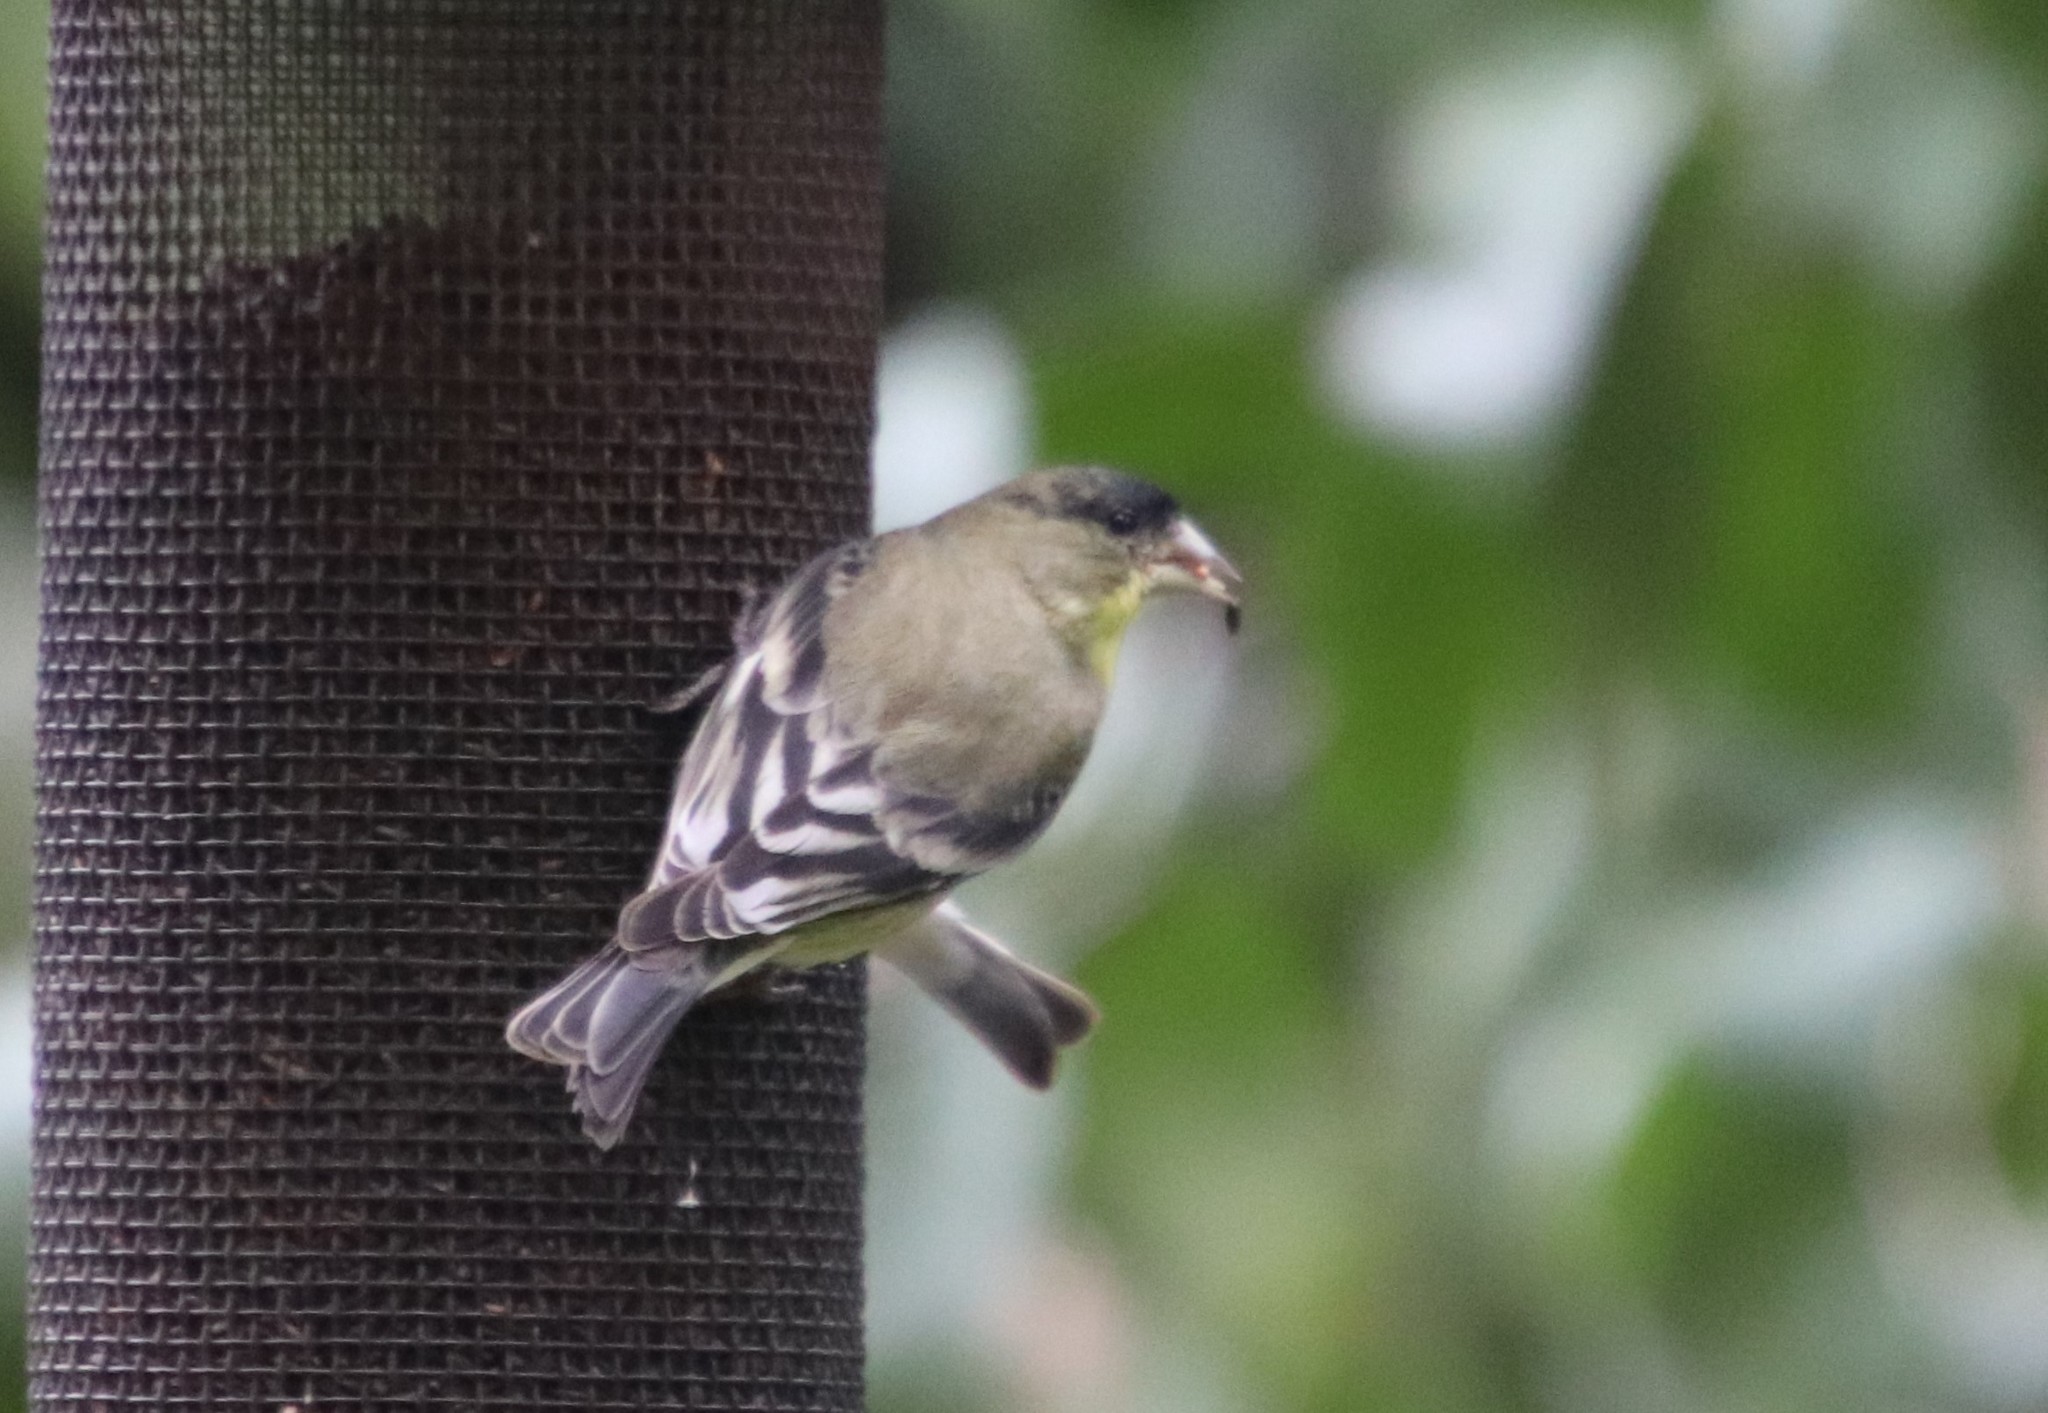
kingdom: Animalia
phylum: Chordata
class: Aves
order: Passeriformes
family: Fringillidae
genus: Spinus
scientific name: Spinus psaltria
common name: Lesser goldfinch
